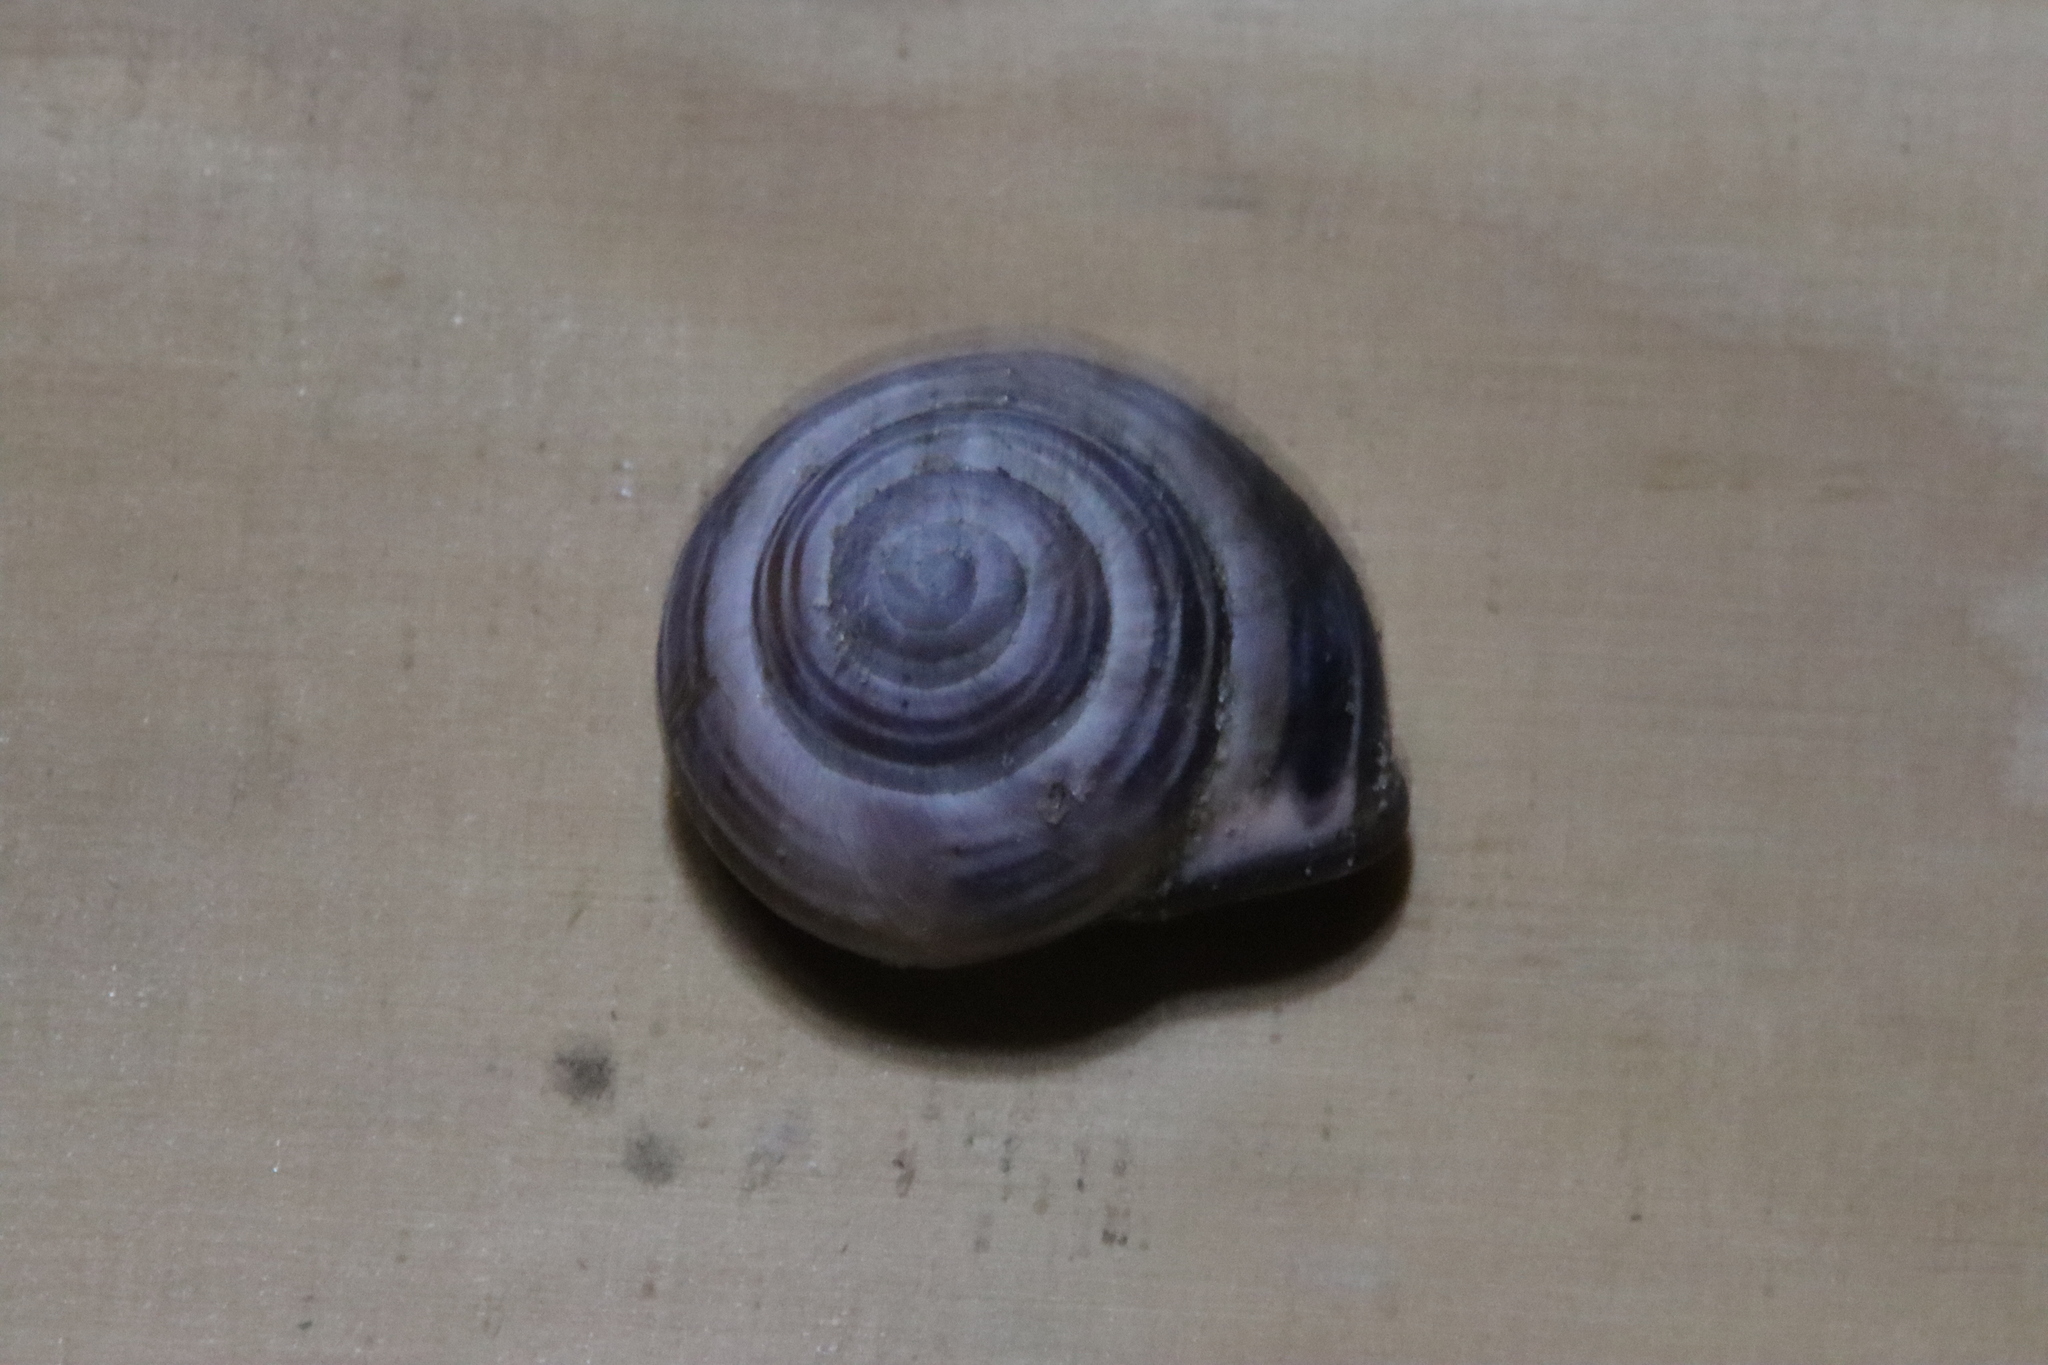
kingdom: Animalia
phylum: Mollusca
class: Gastropoda
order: Stylommatophora
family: Helicidae
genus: Cepaea
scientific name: Cepaea nemoralis
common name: Grovesnail
